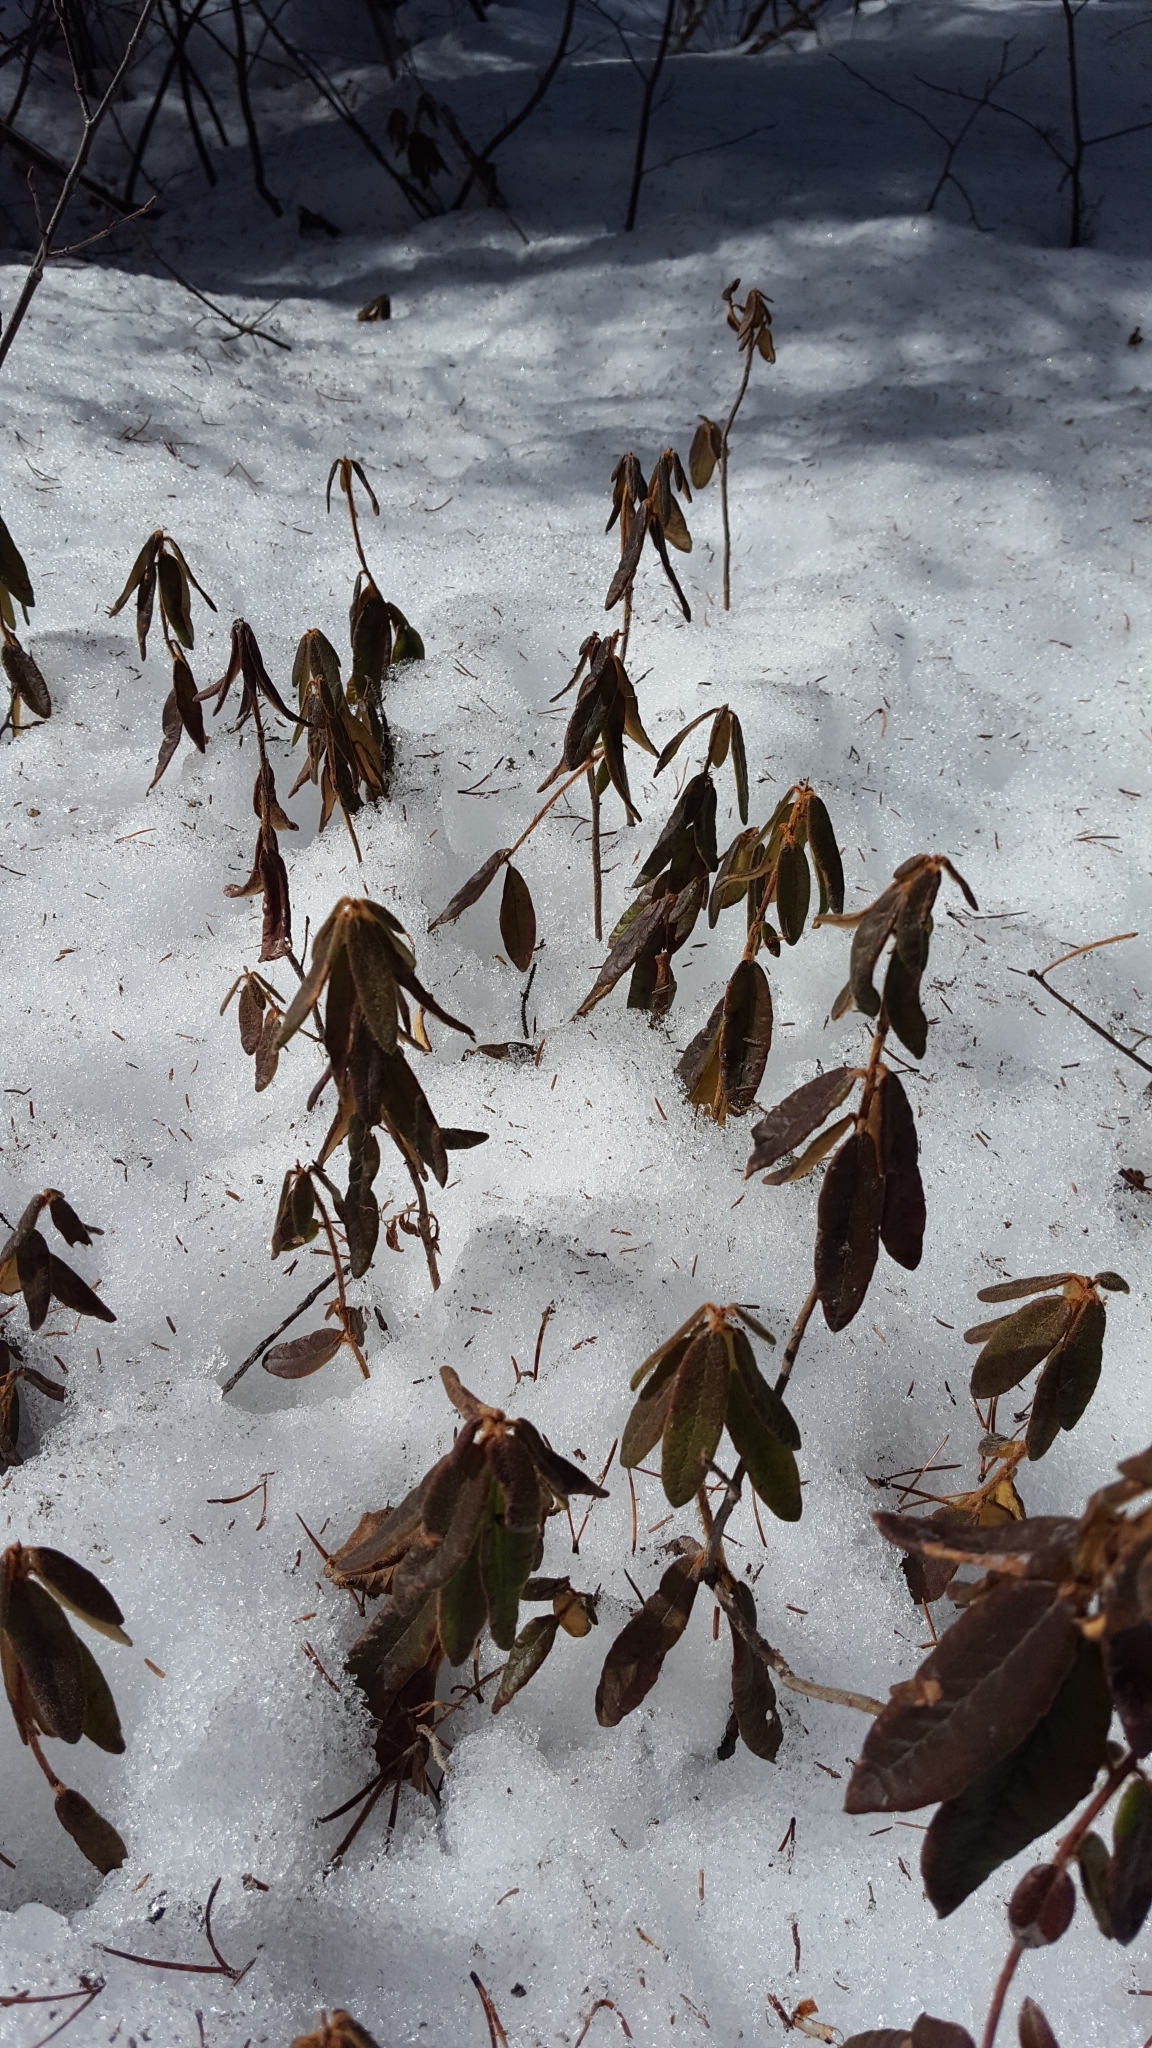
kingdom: Plantae
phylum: Tracheophyta
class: Magnoliopsida
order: Ericales
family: Ericaceae
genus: Rhododendron
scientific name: Rhododendron groenlandicum
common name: Bog labrador tea
